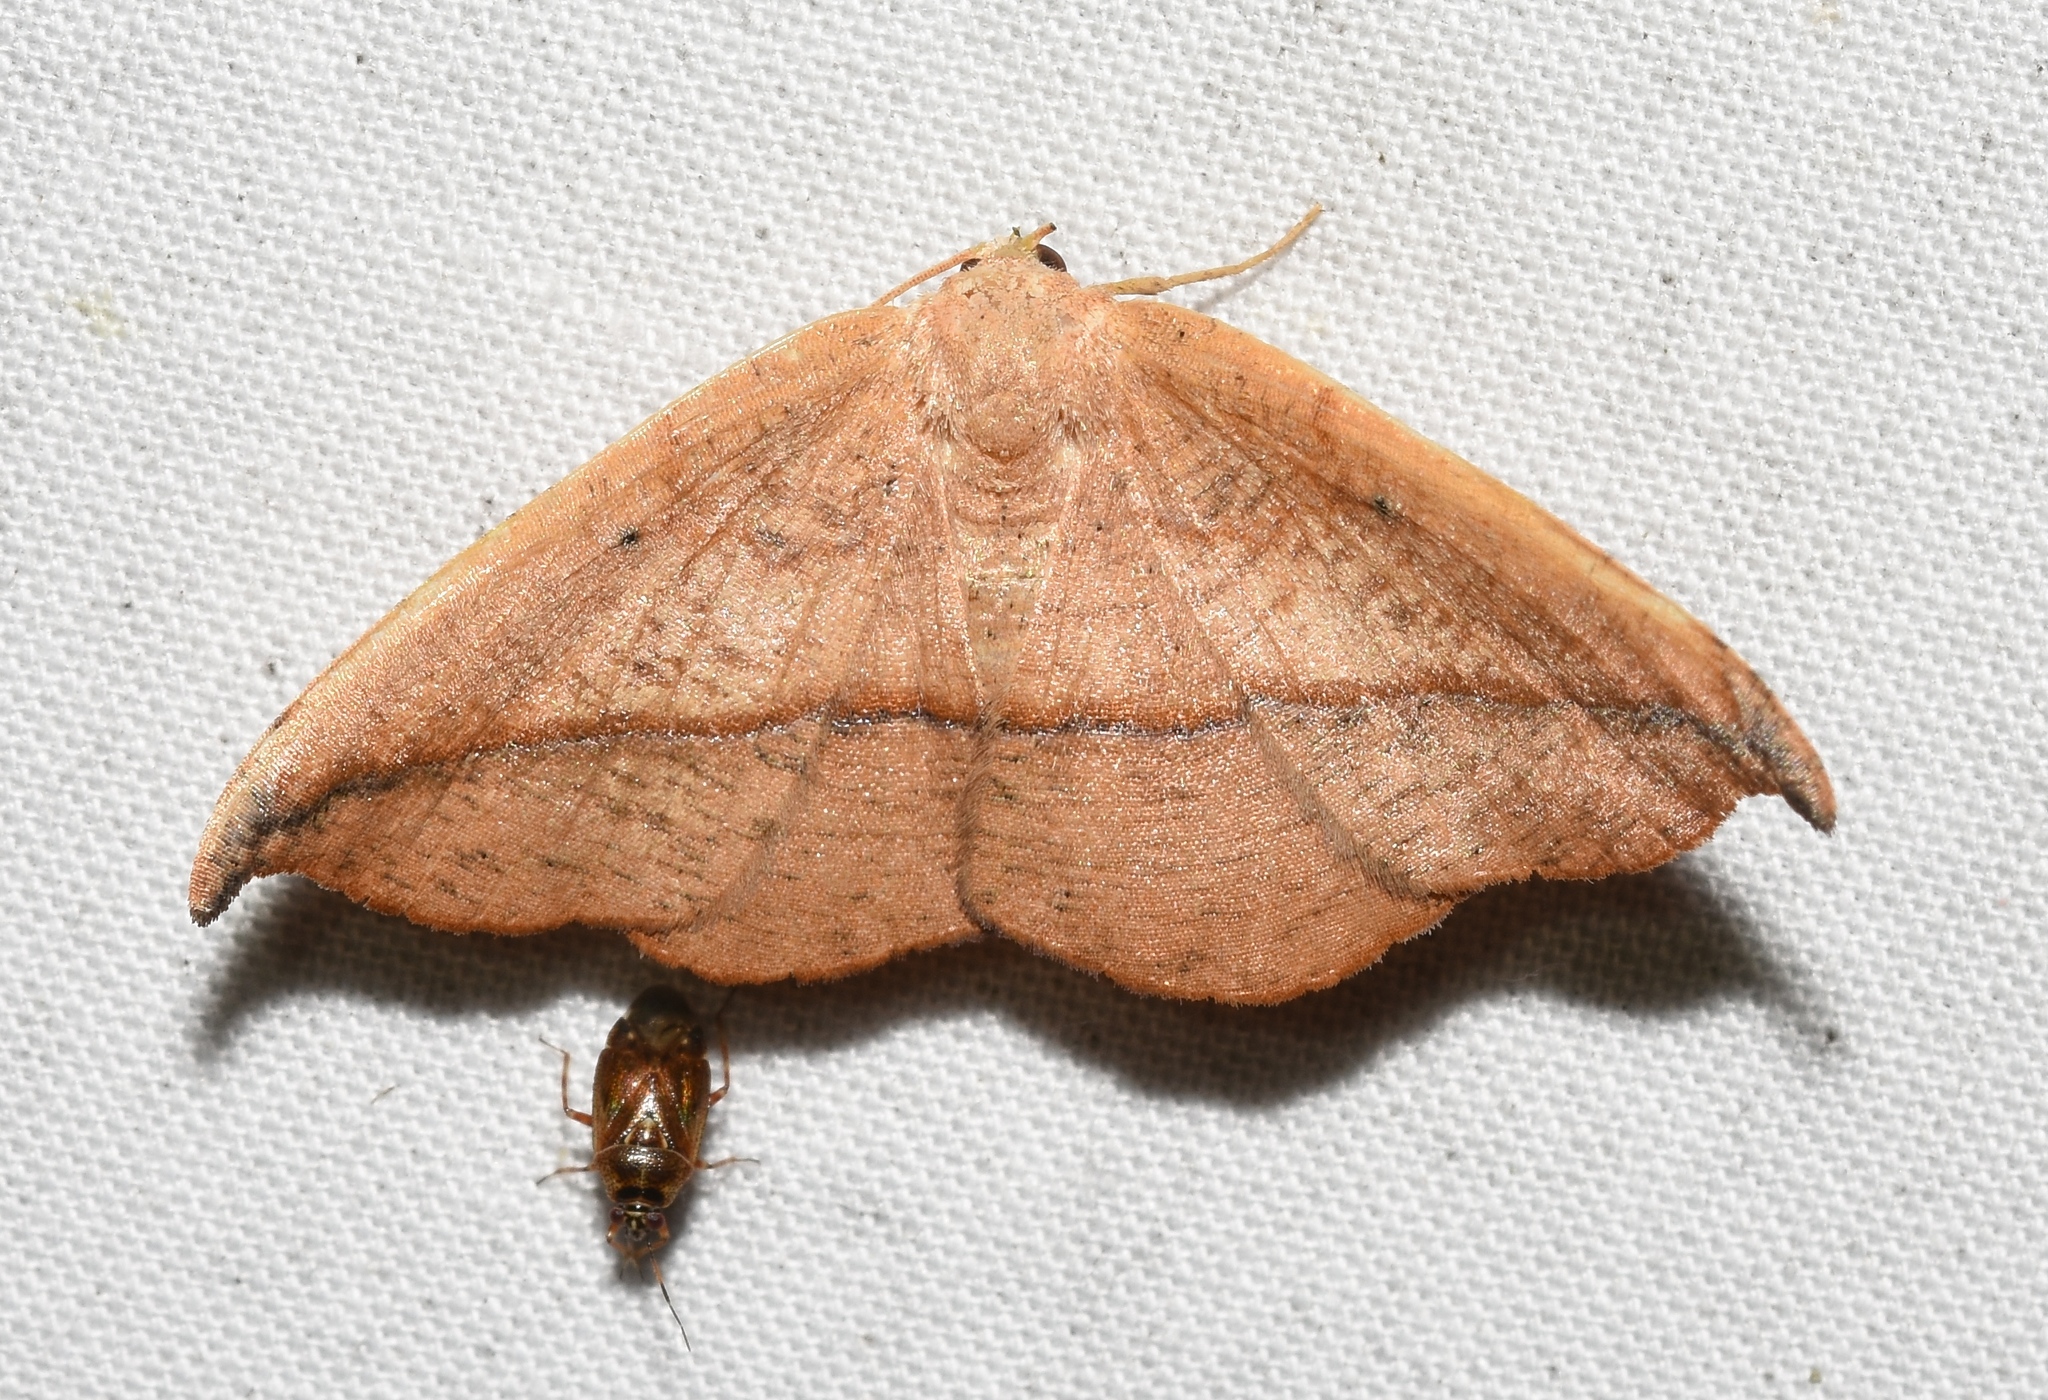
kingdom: Animalia
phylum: Arthropoda
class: Insecta
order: Lepidoptera
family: Geometridae
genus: Patalene
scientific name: Patalene olyzonaria
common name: Juniper geometer moth
